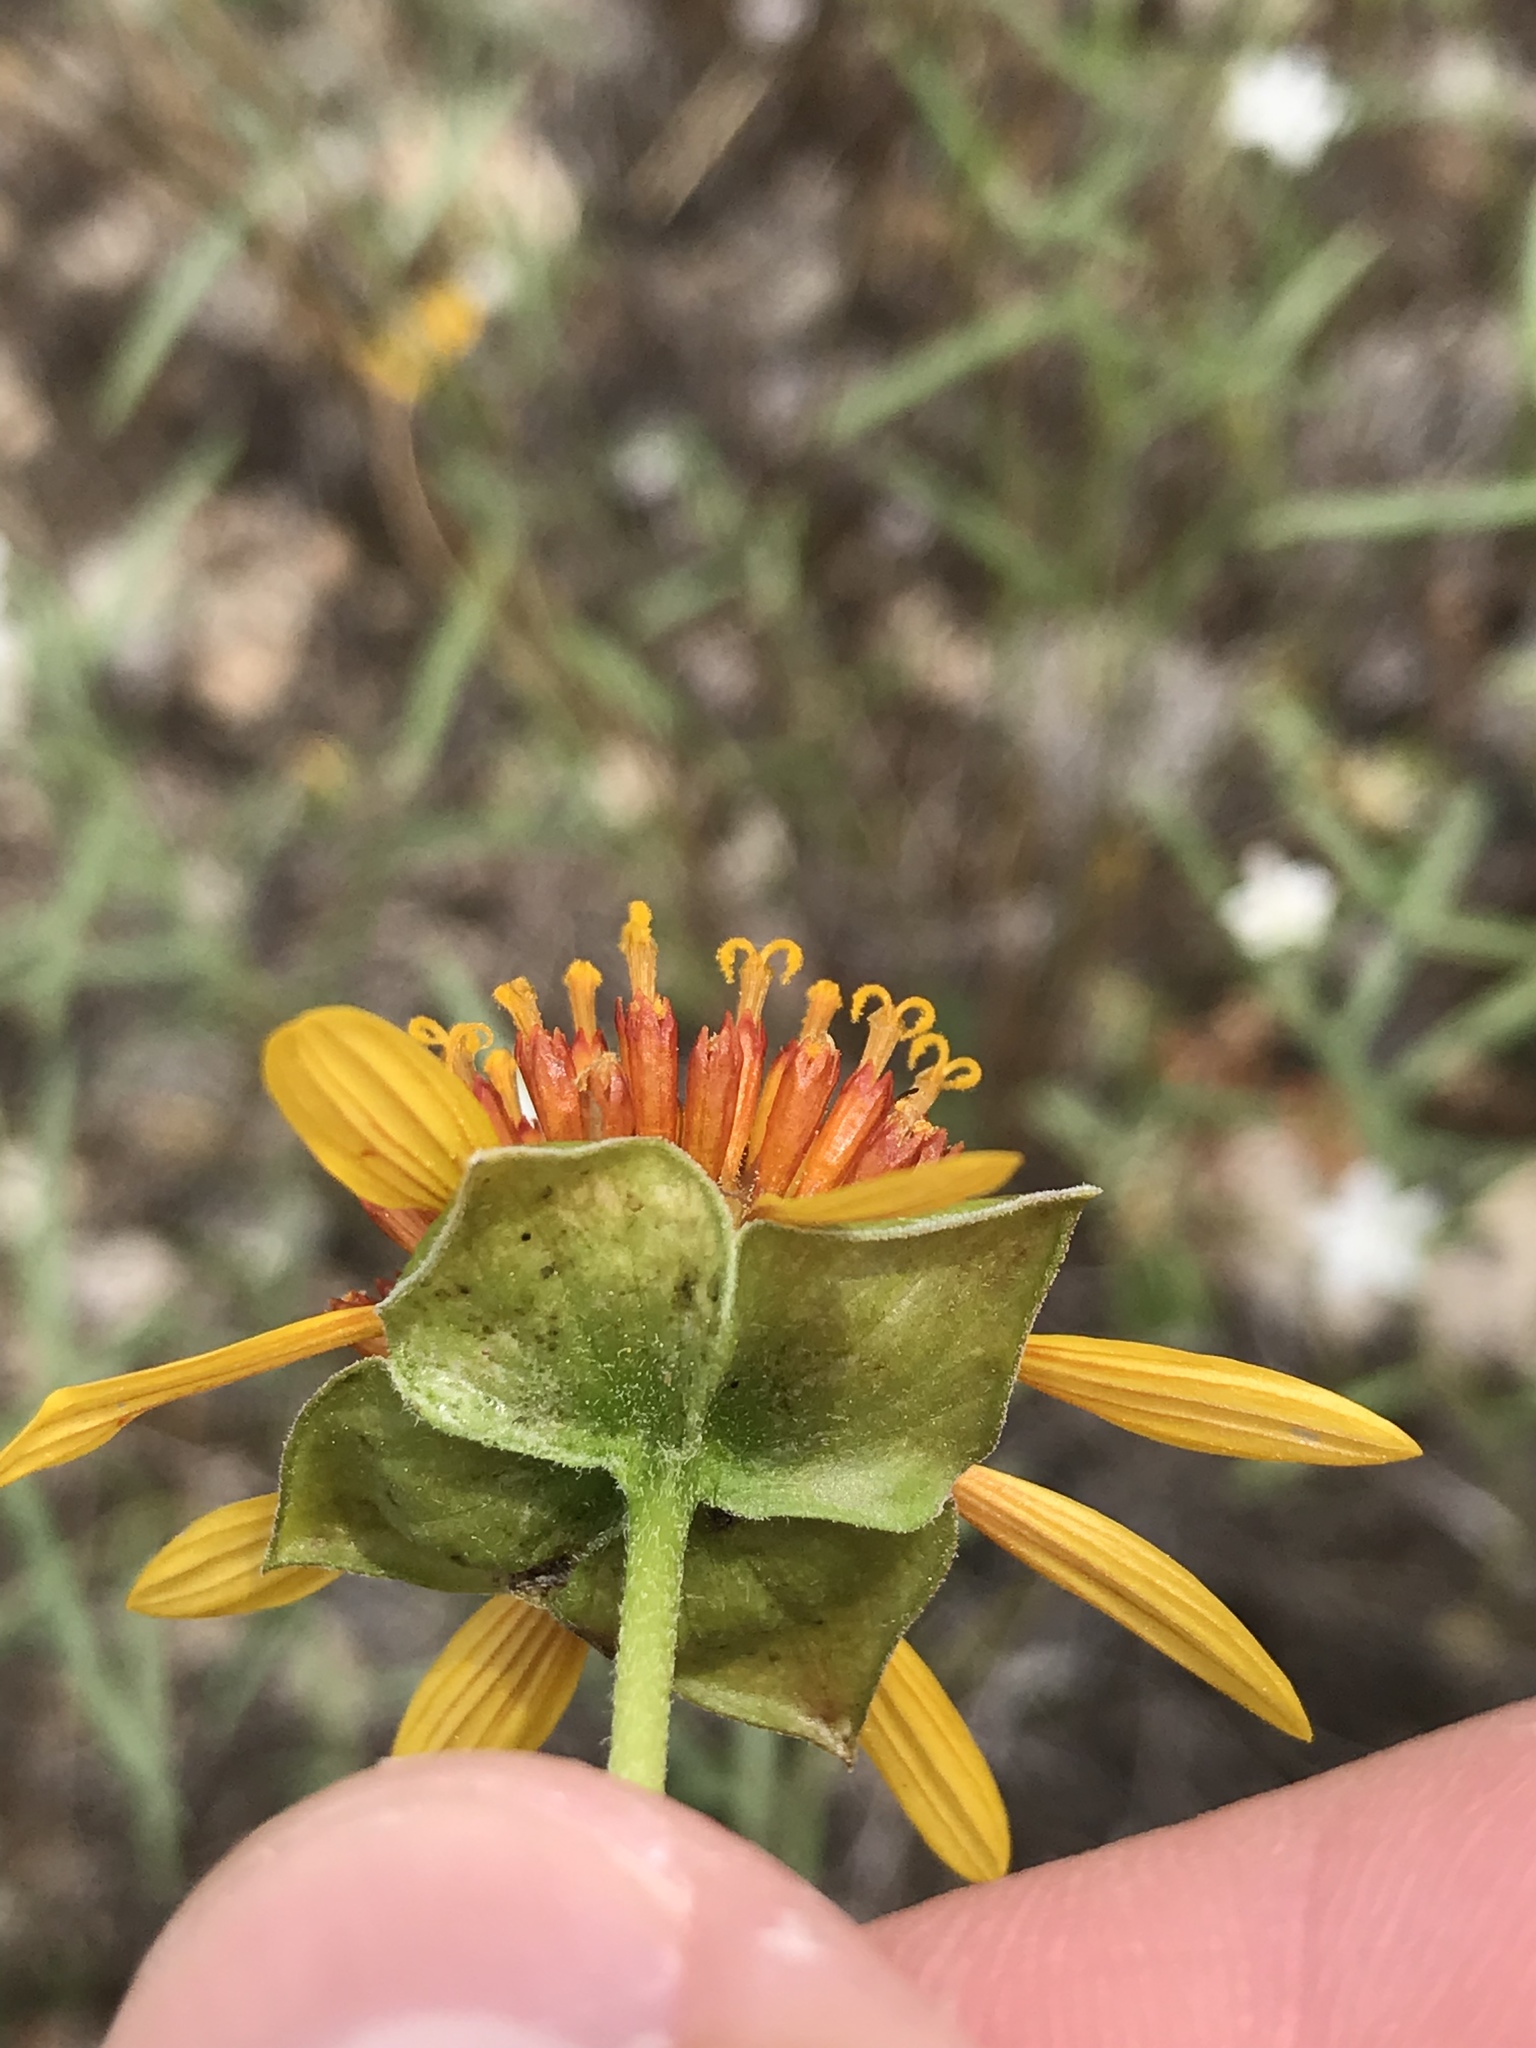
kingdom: Plantae
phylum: Tracheophyta
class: Magnoliopsida
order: Asterales
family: Asteraceae
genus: Tetragonotheca
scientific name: Tetragonotheca texana
